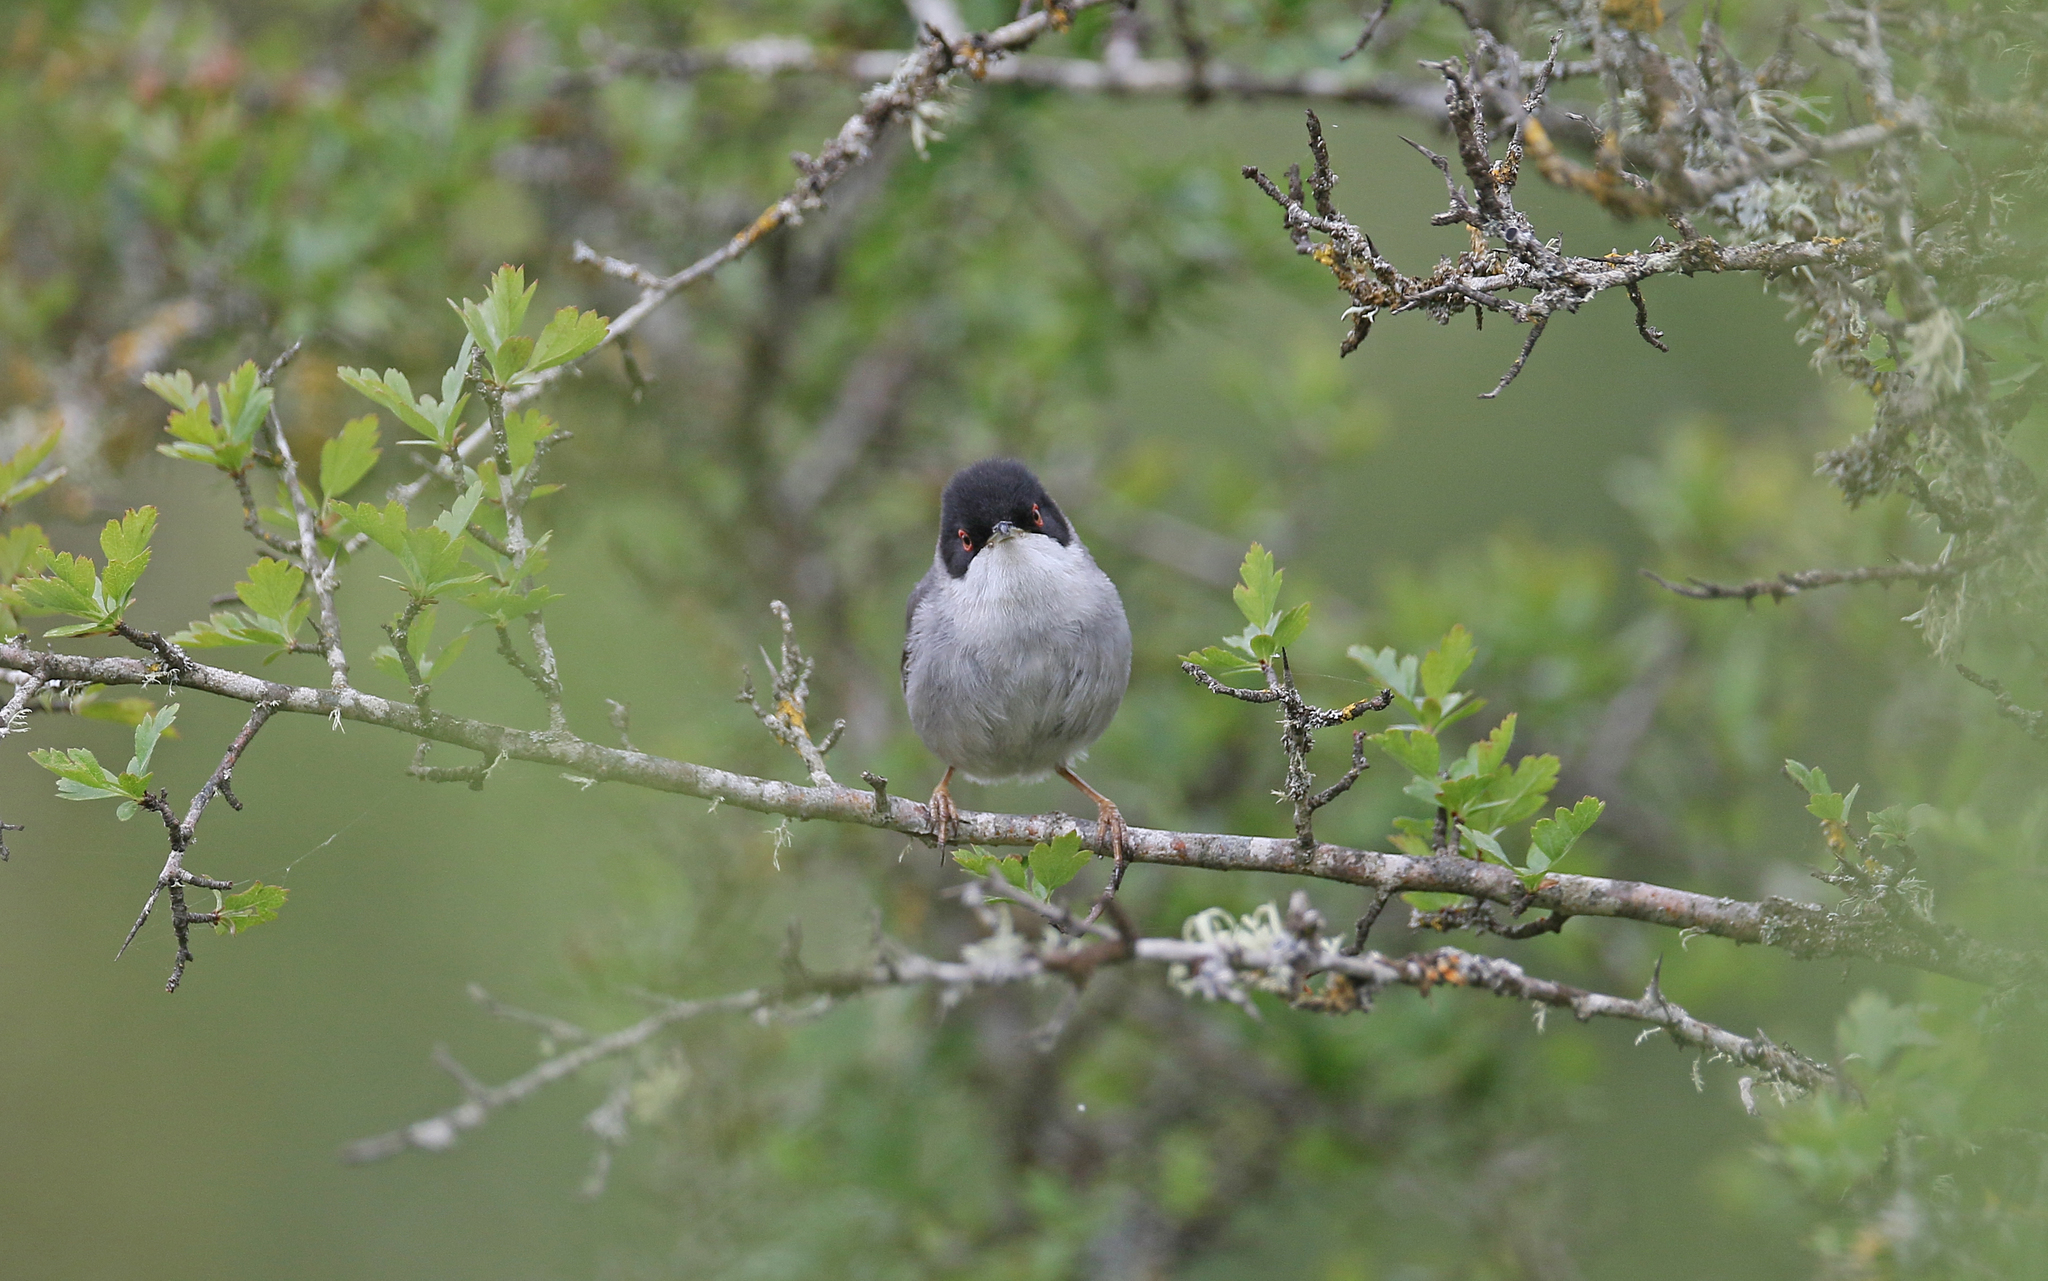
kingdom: Animalia
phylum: Chordata
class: Aves
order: Passeriformes
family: Sylviidae
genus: Curruca
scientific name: Curruca melanocephala
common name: Sardinian warbler
